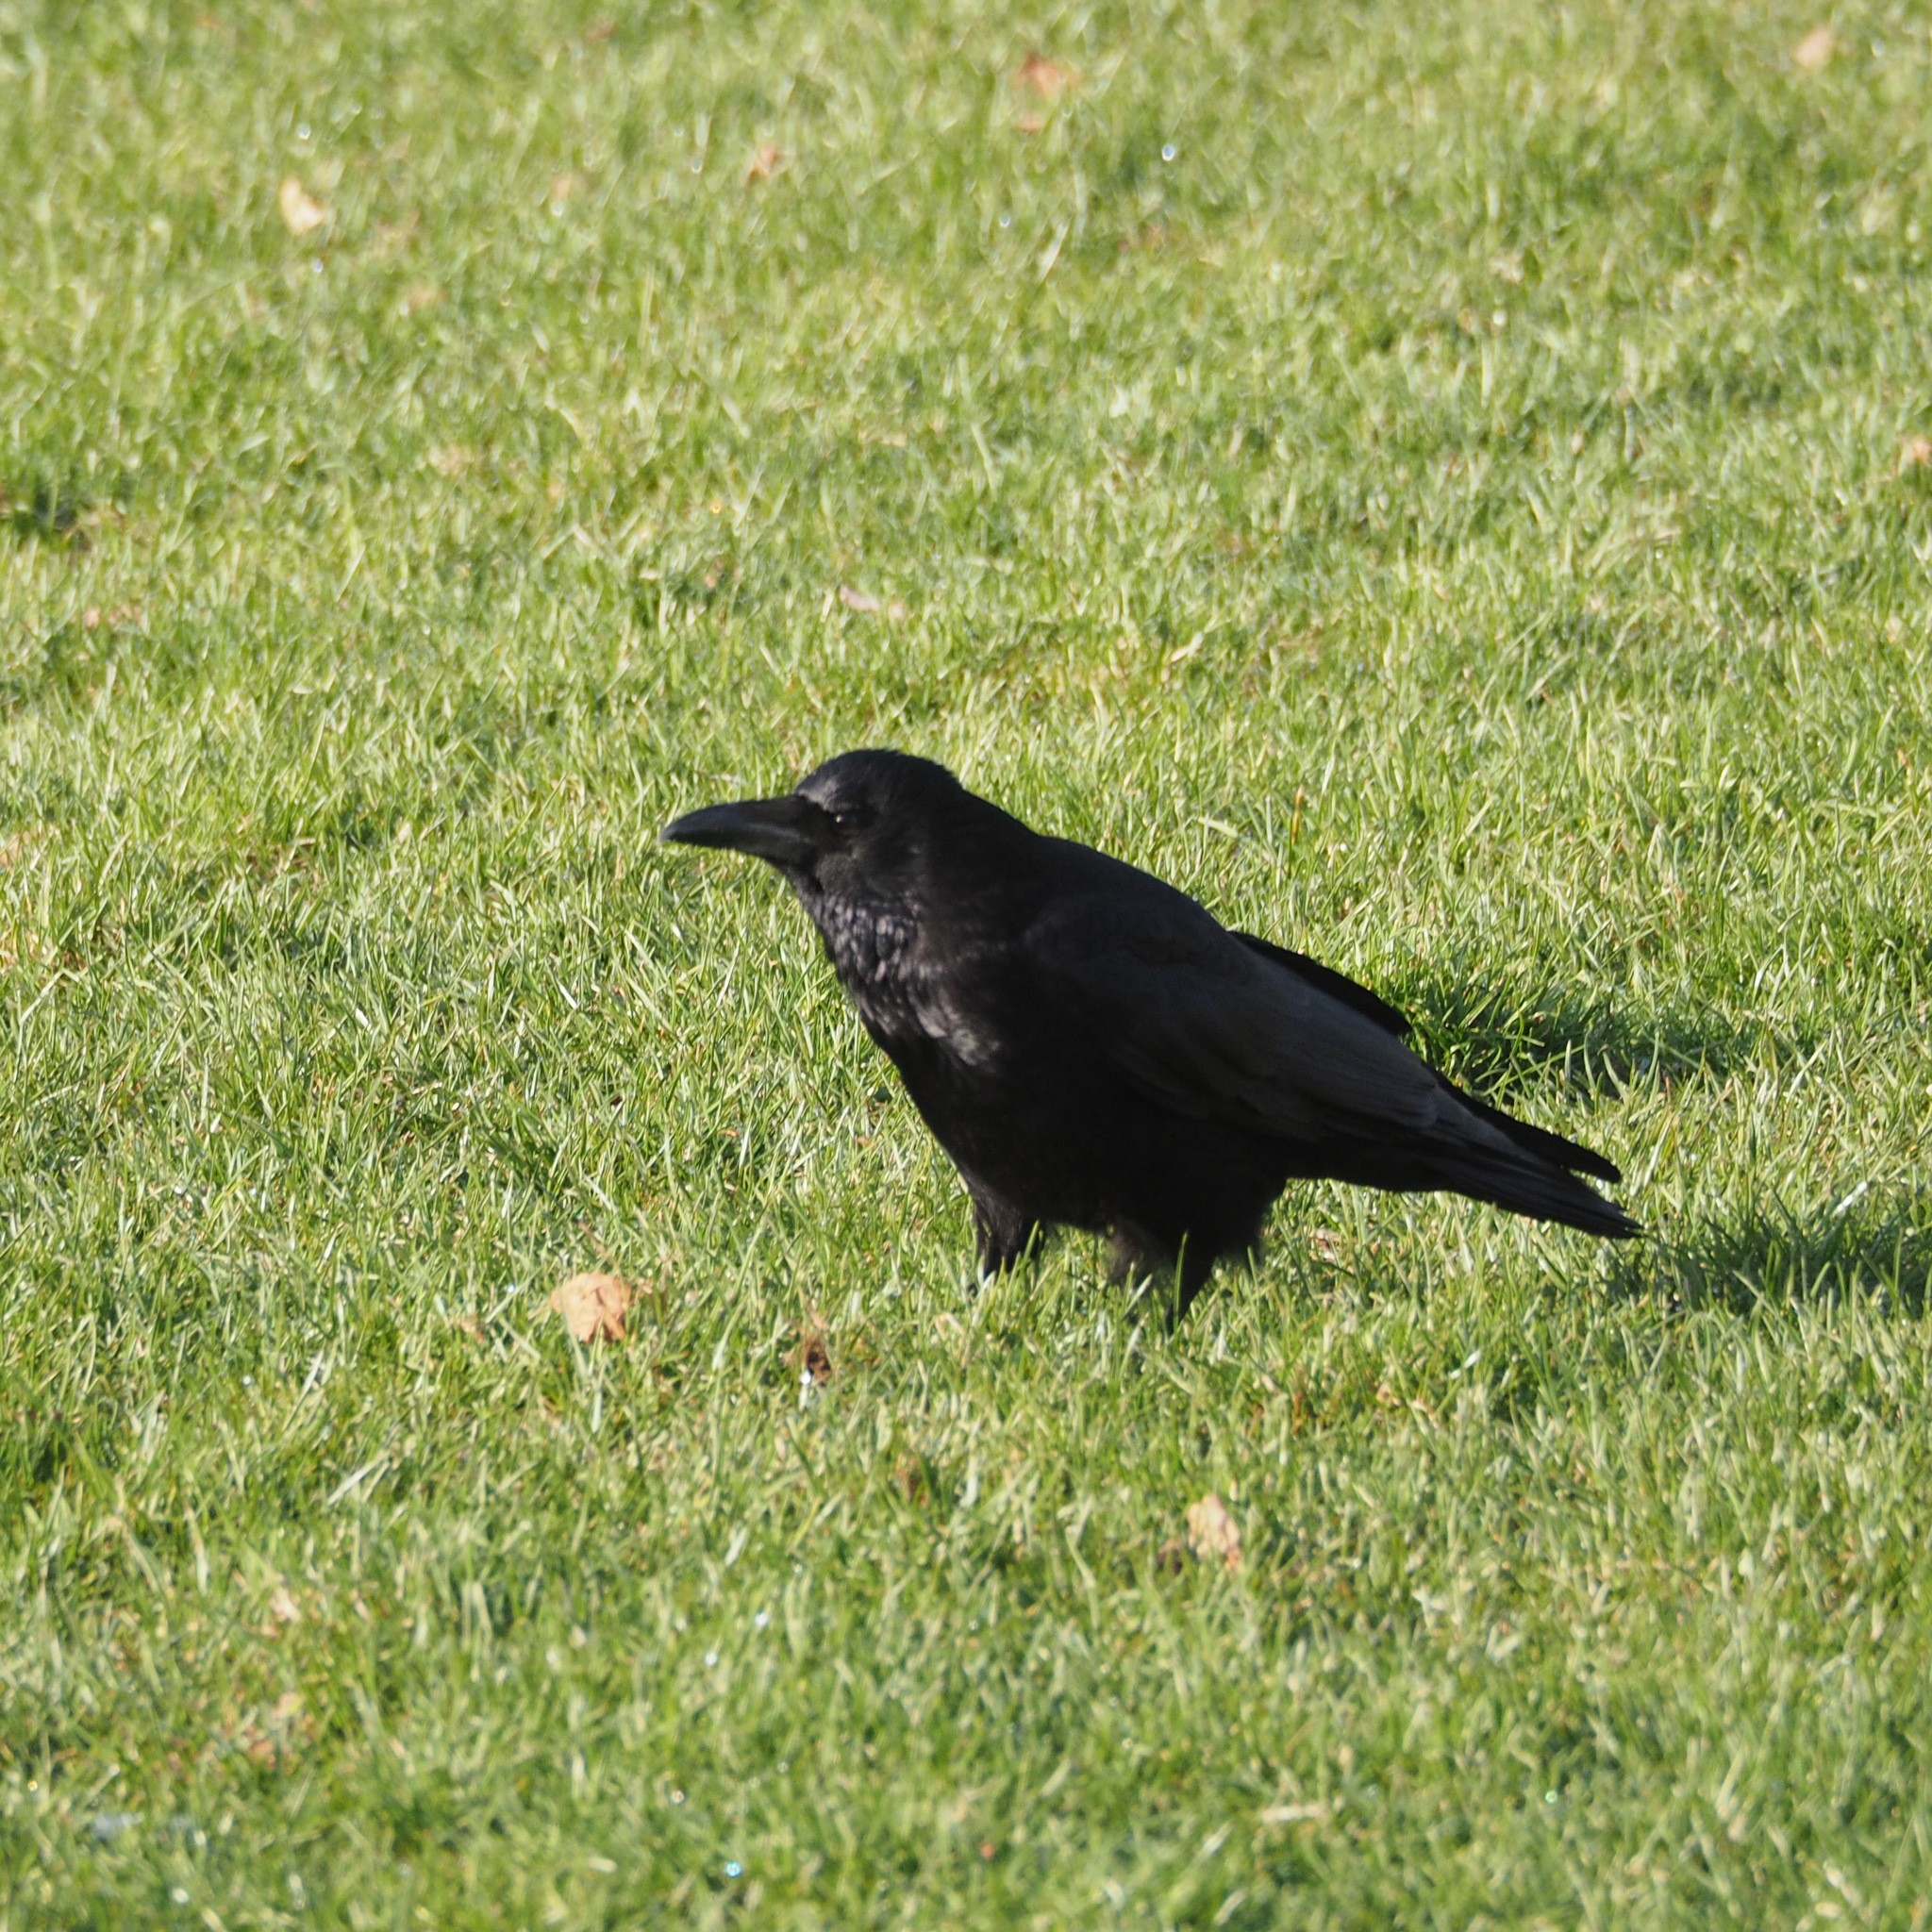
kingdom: Animalia
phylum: Chordata
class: Aves
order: Passeriformes
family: Corvidae
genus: Corvus
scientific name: Corvus corone
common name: Carrion crow
